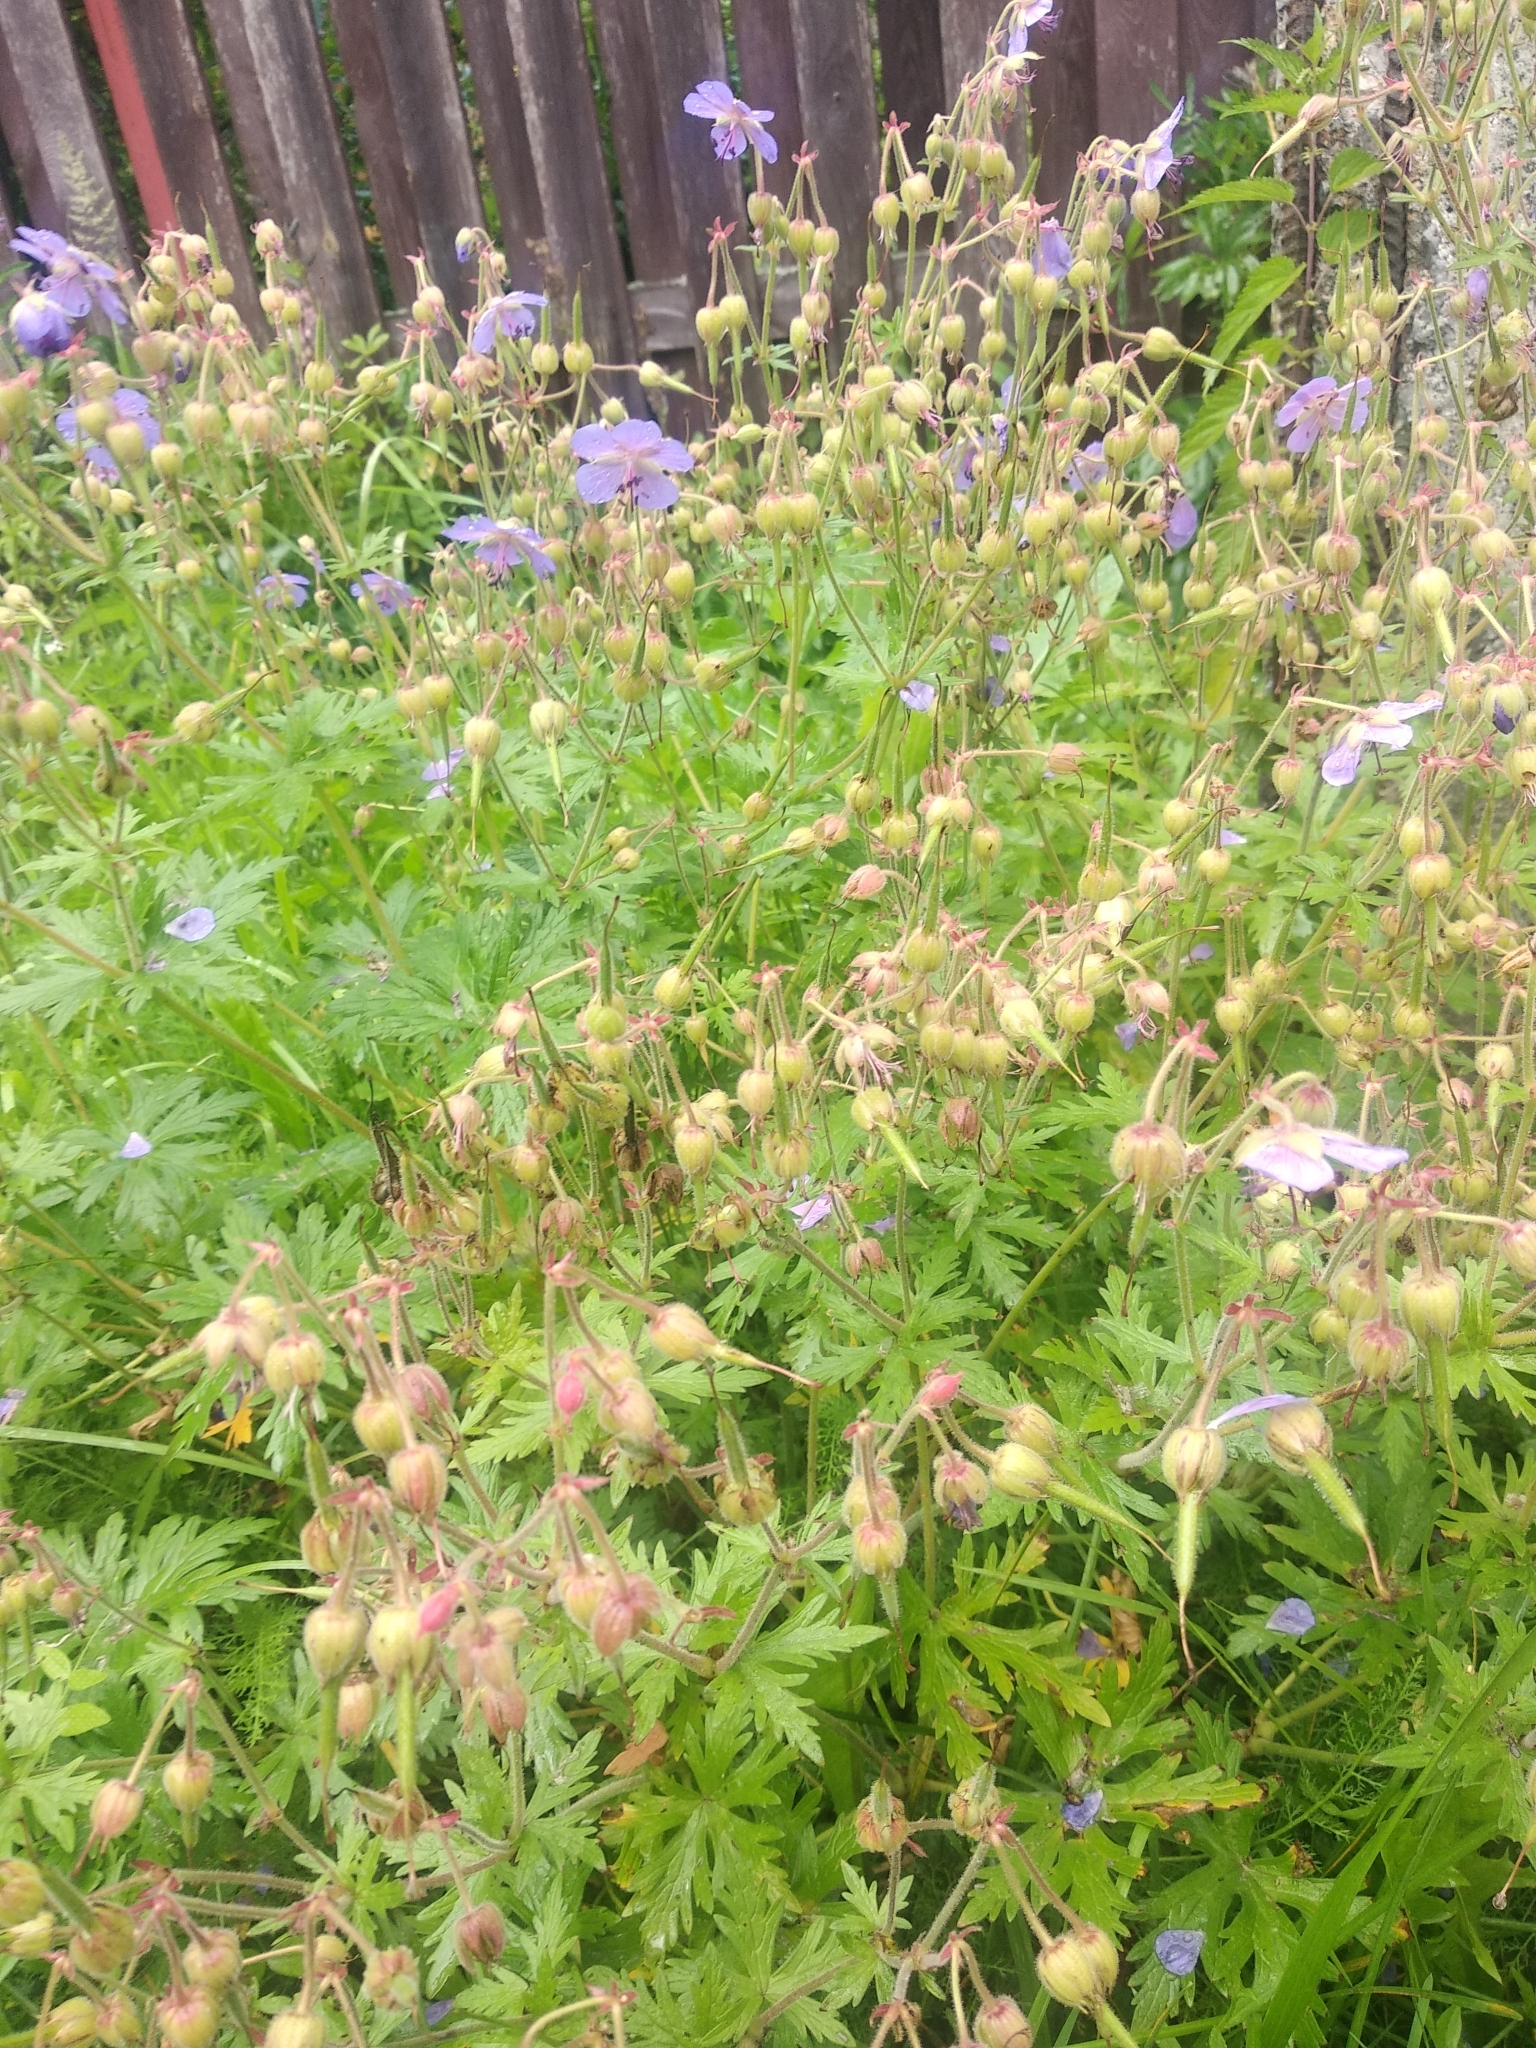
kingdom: Plantae
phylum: Tracheophyta
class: Magnoliopsida
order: Geraniales
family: Geraniaceae
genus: Geranium
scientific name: Geranium pratense
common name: Meadow crane's-bill
